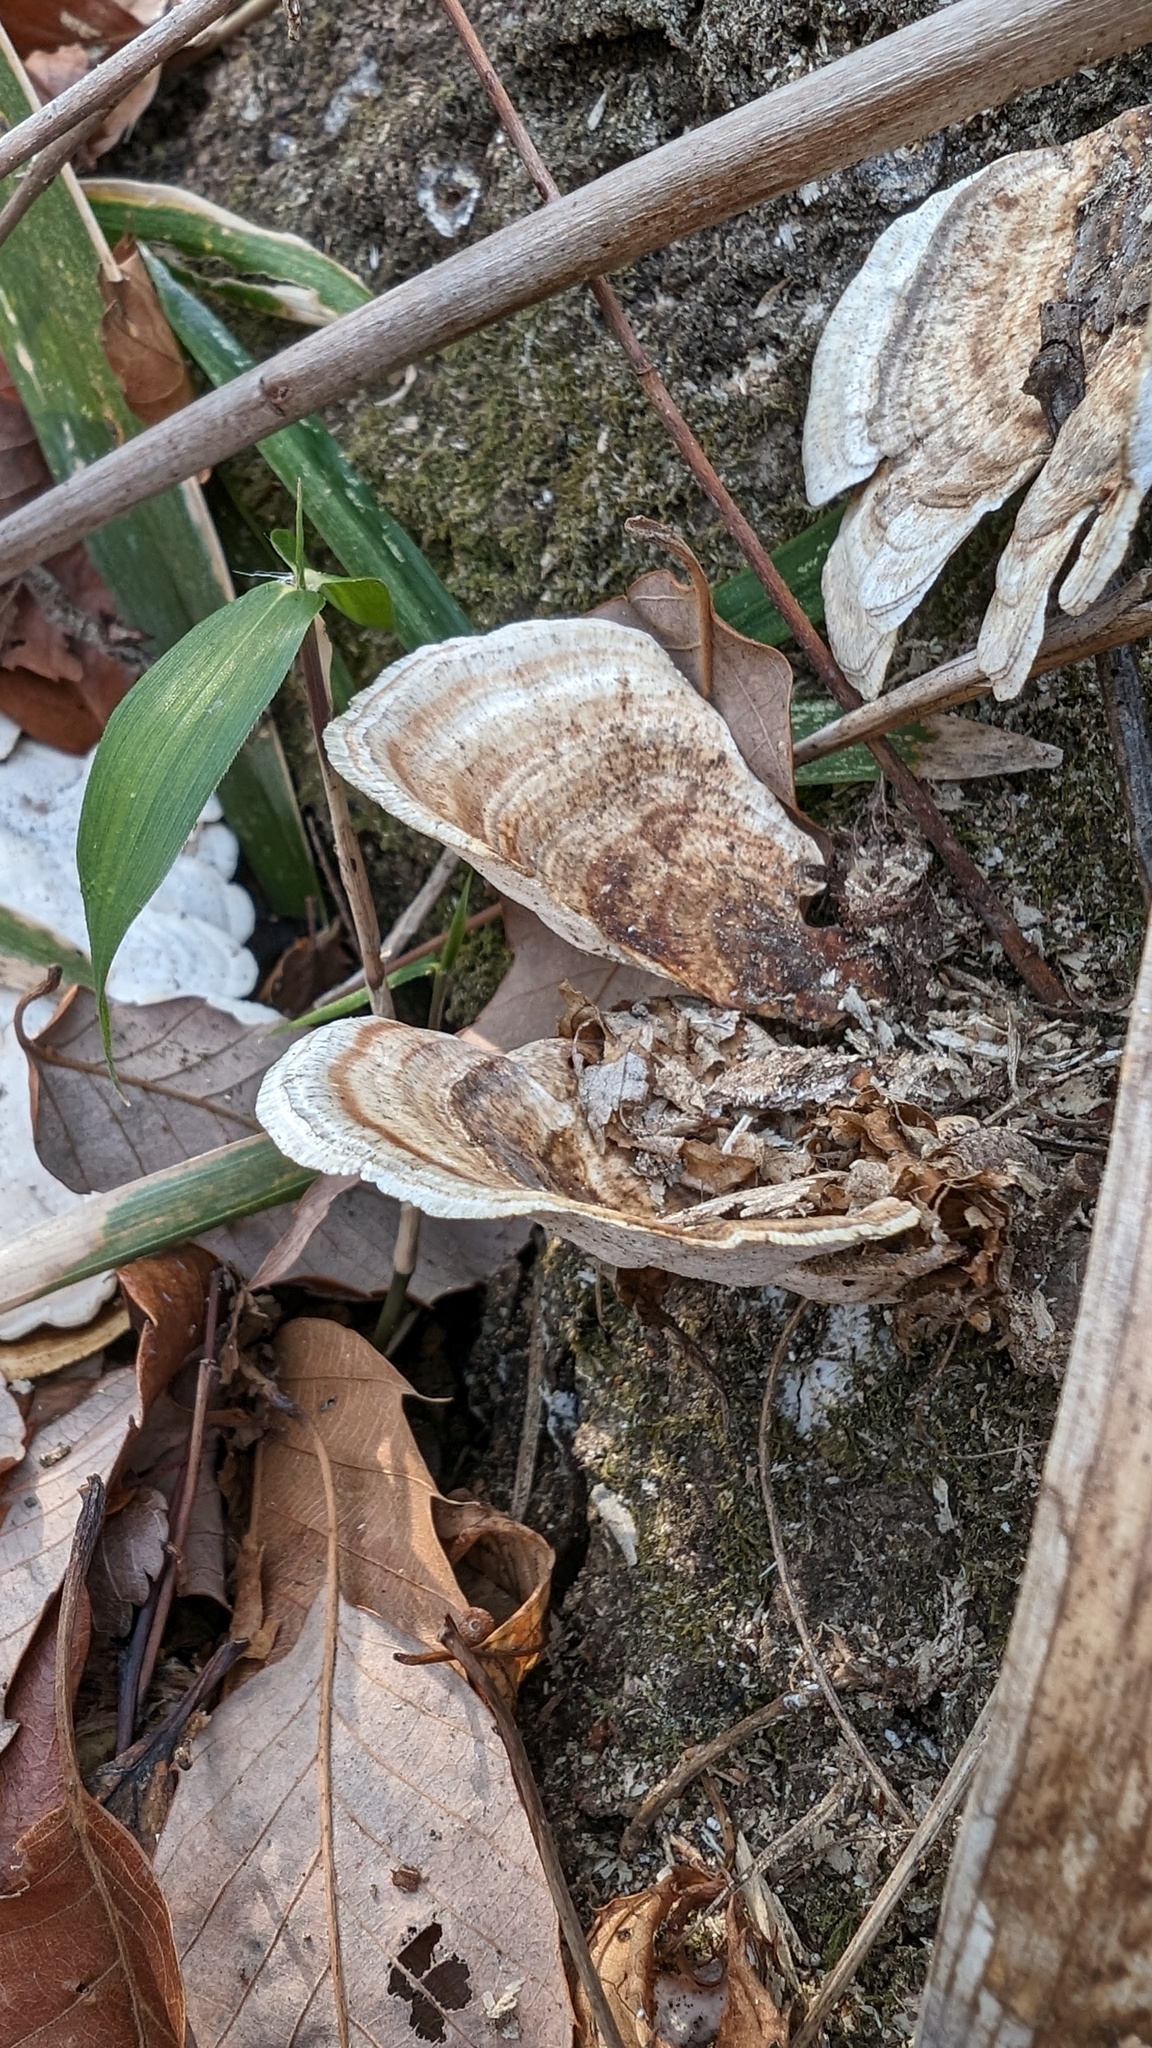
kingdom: Fungi
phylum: Basidiomycota
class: Agaricomycetes
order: Polyporales
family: Polyporaceae
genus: Trametes
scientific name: Trametes vernicipes
